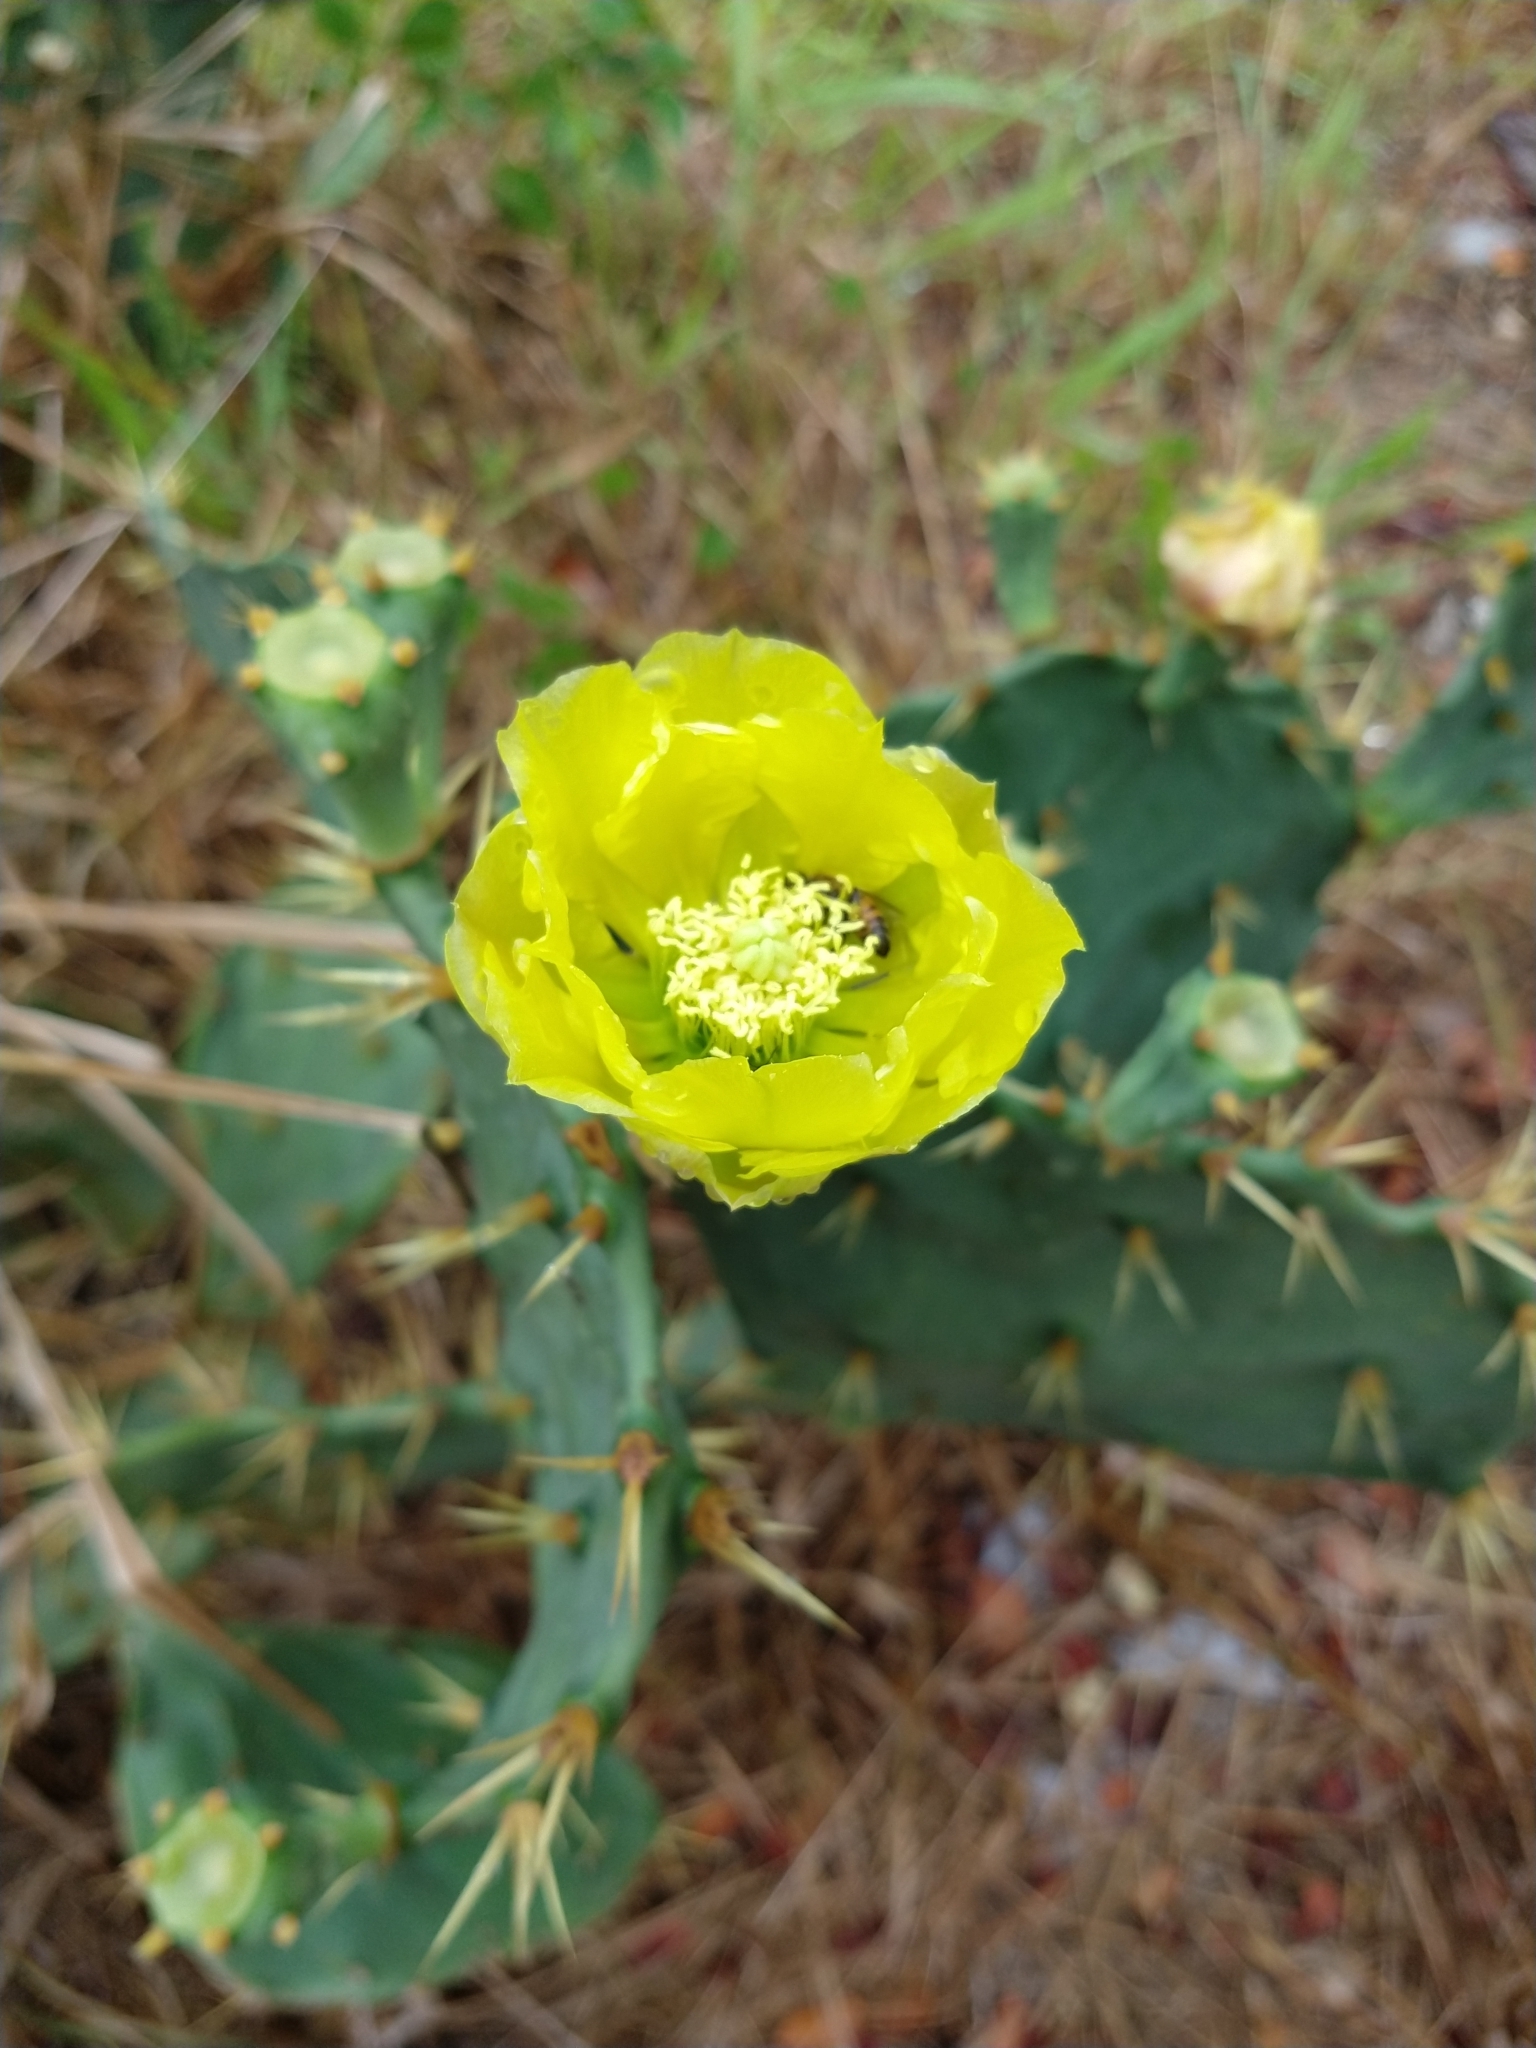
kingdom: Plantae
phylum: Tracheophyta
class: Magnoliopsida
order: Caryophyllales
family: Cactaceae
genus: Opuntia
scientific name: Opuntia dillenii
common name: Sour prickle
